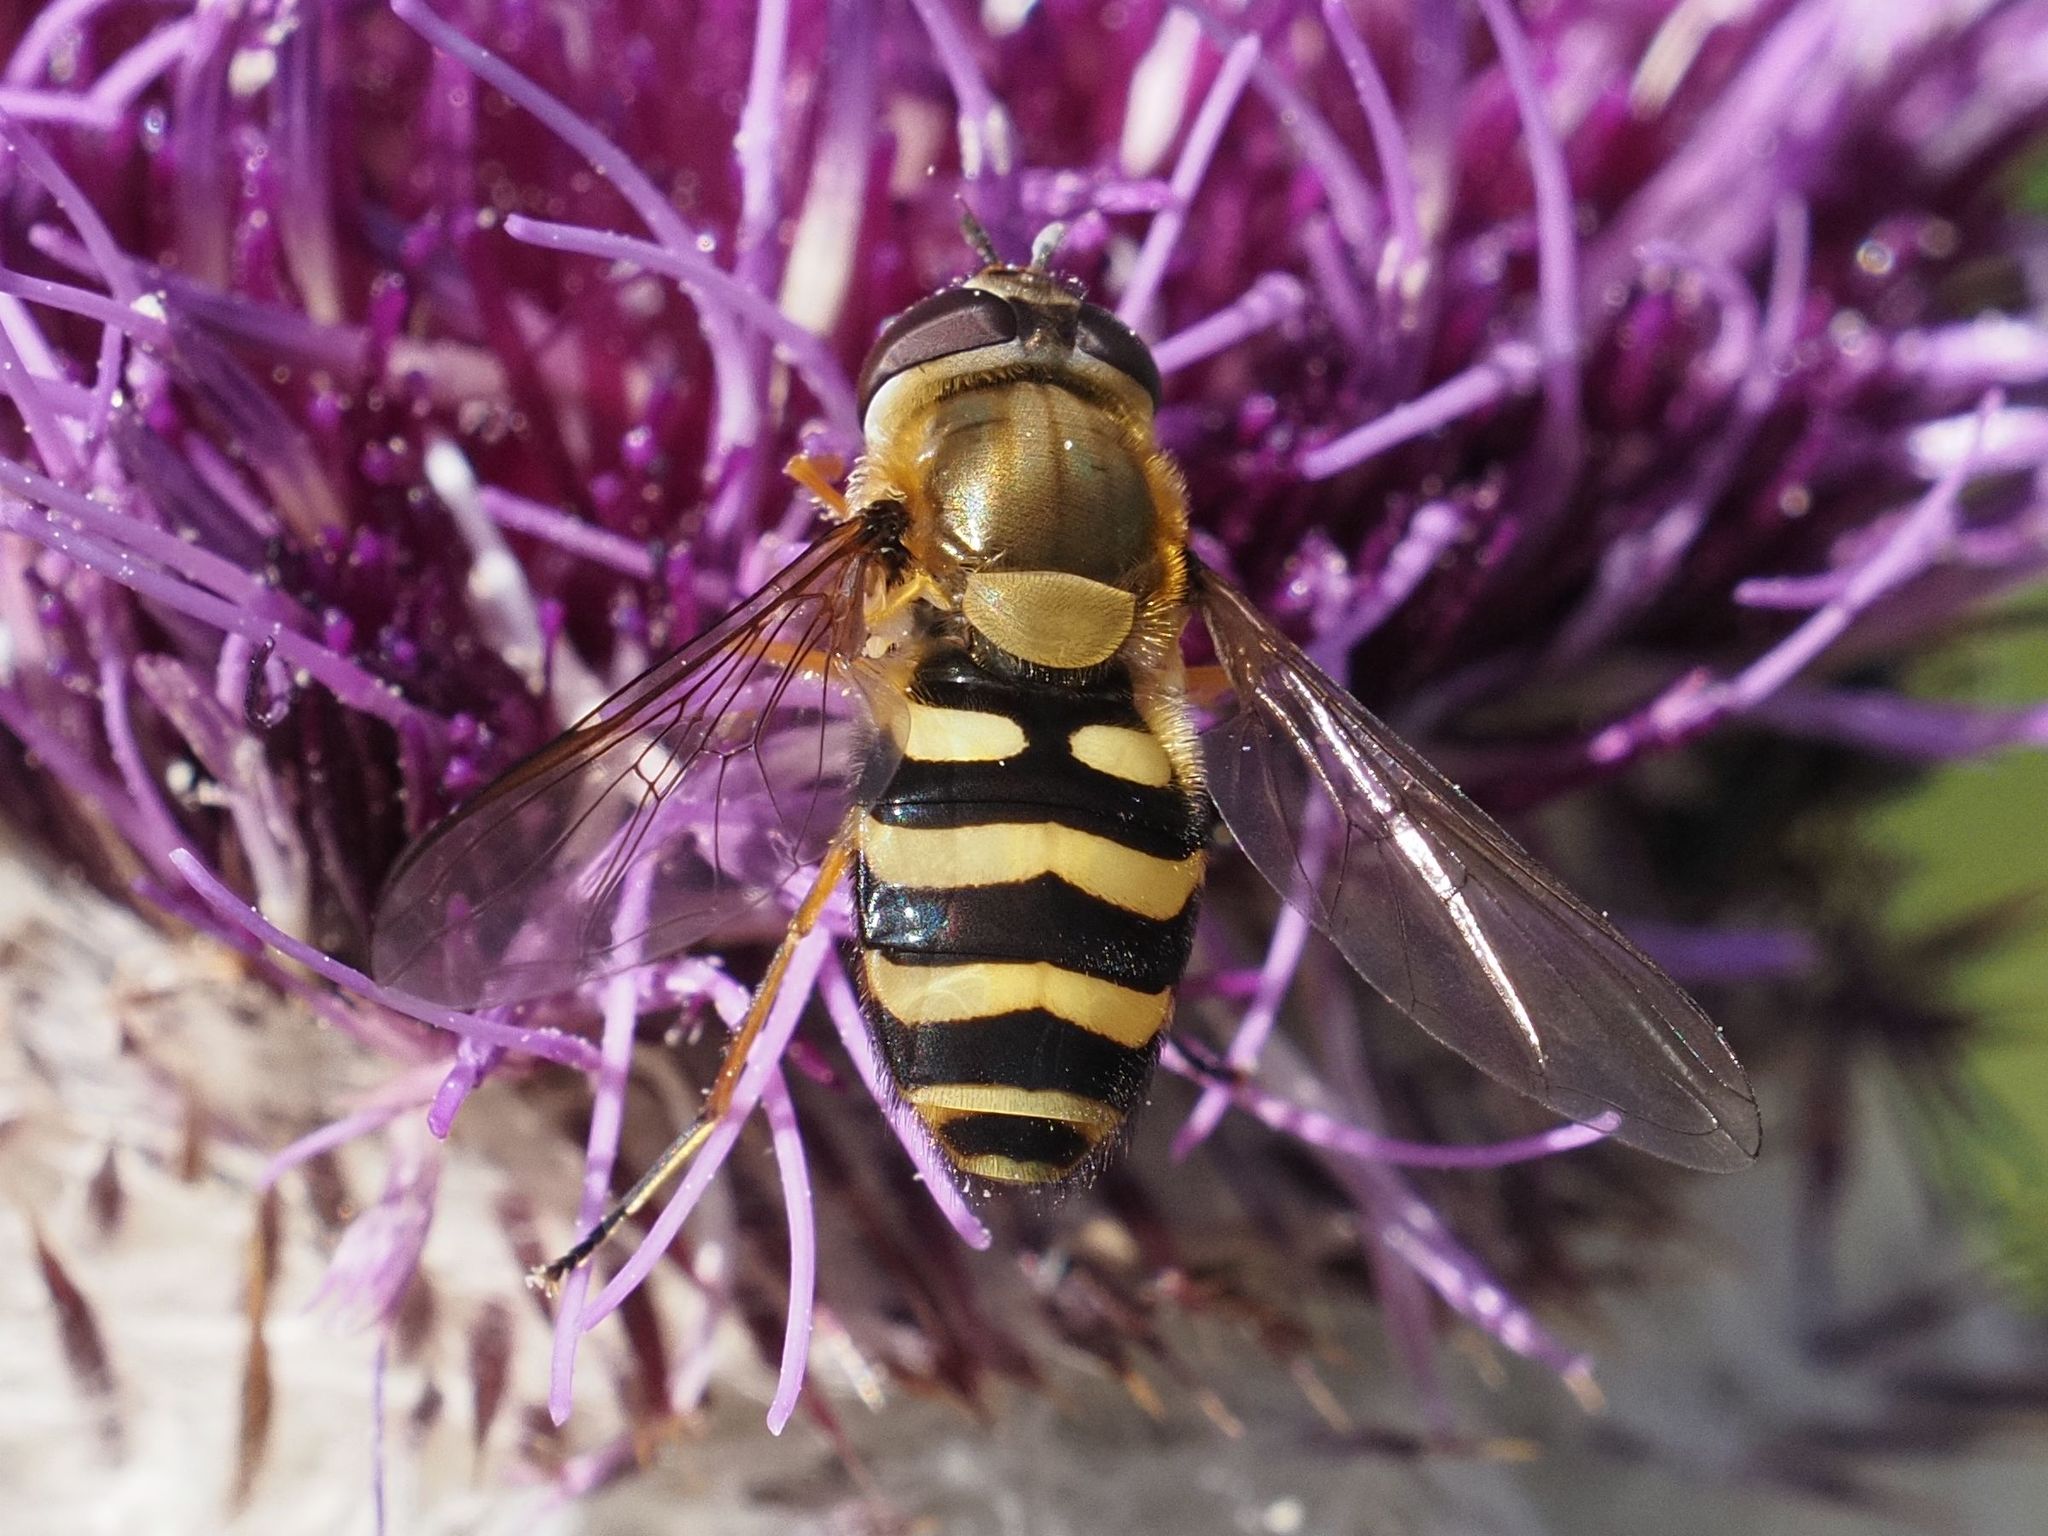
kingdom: Animalia
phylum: Arthropoda
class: Insecta
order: Diptera
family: Syrphidae
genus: Syrphus
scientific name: Syrphus torvus
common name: Hairy-eyed flower fly
